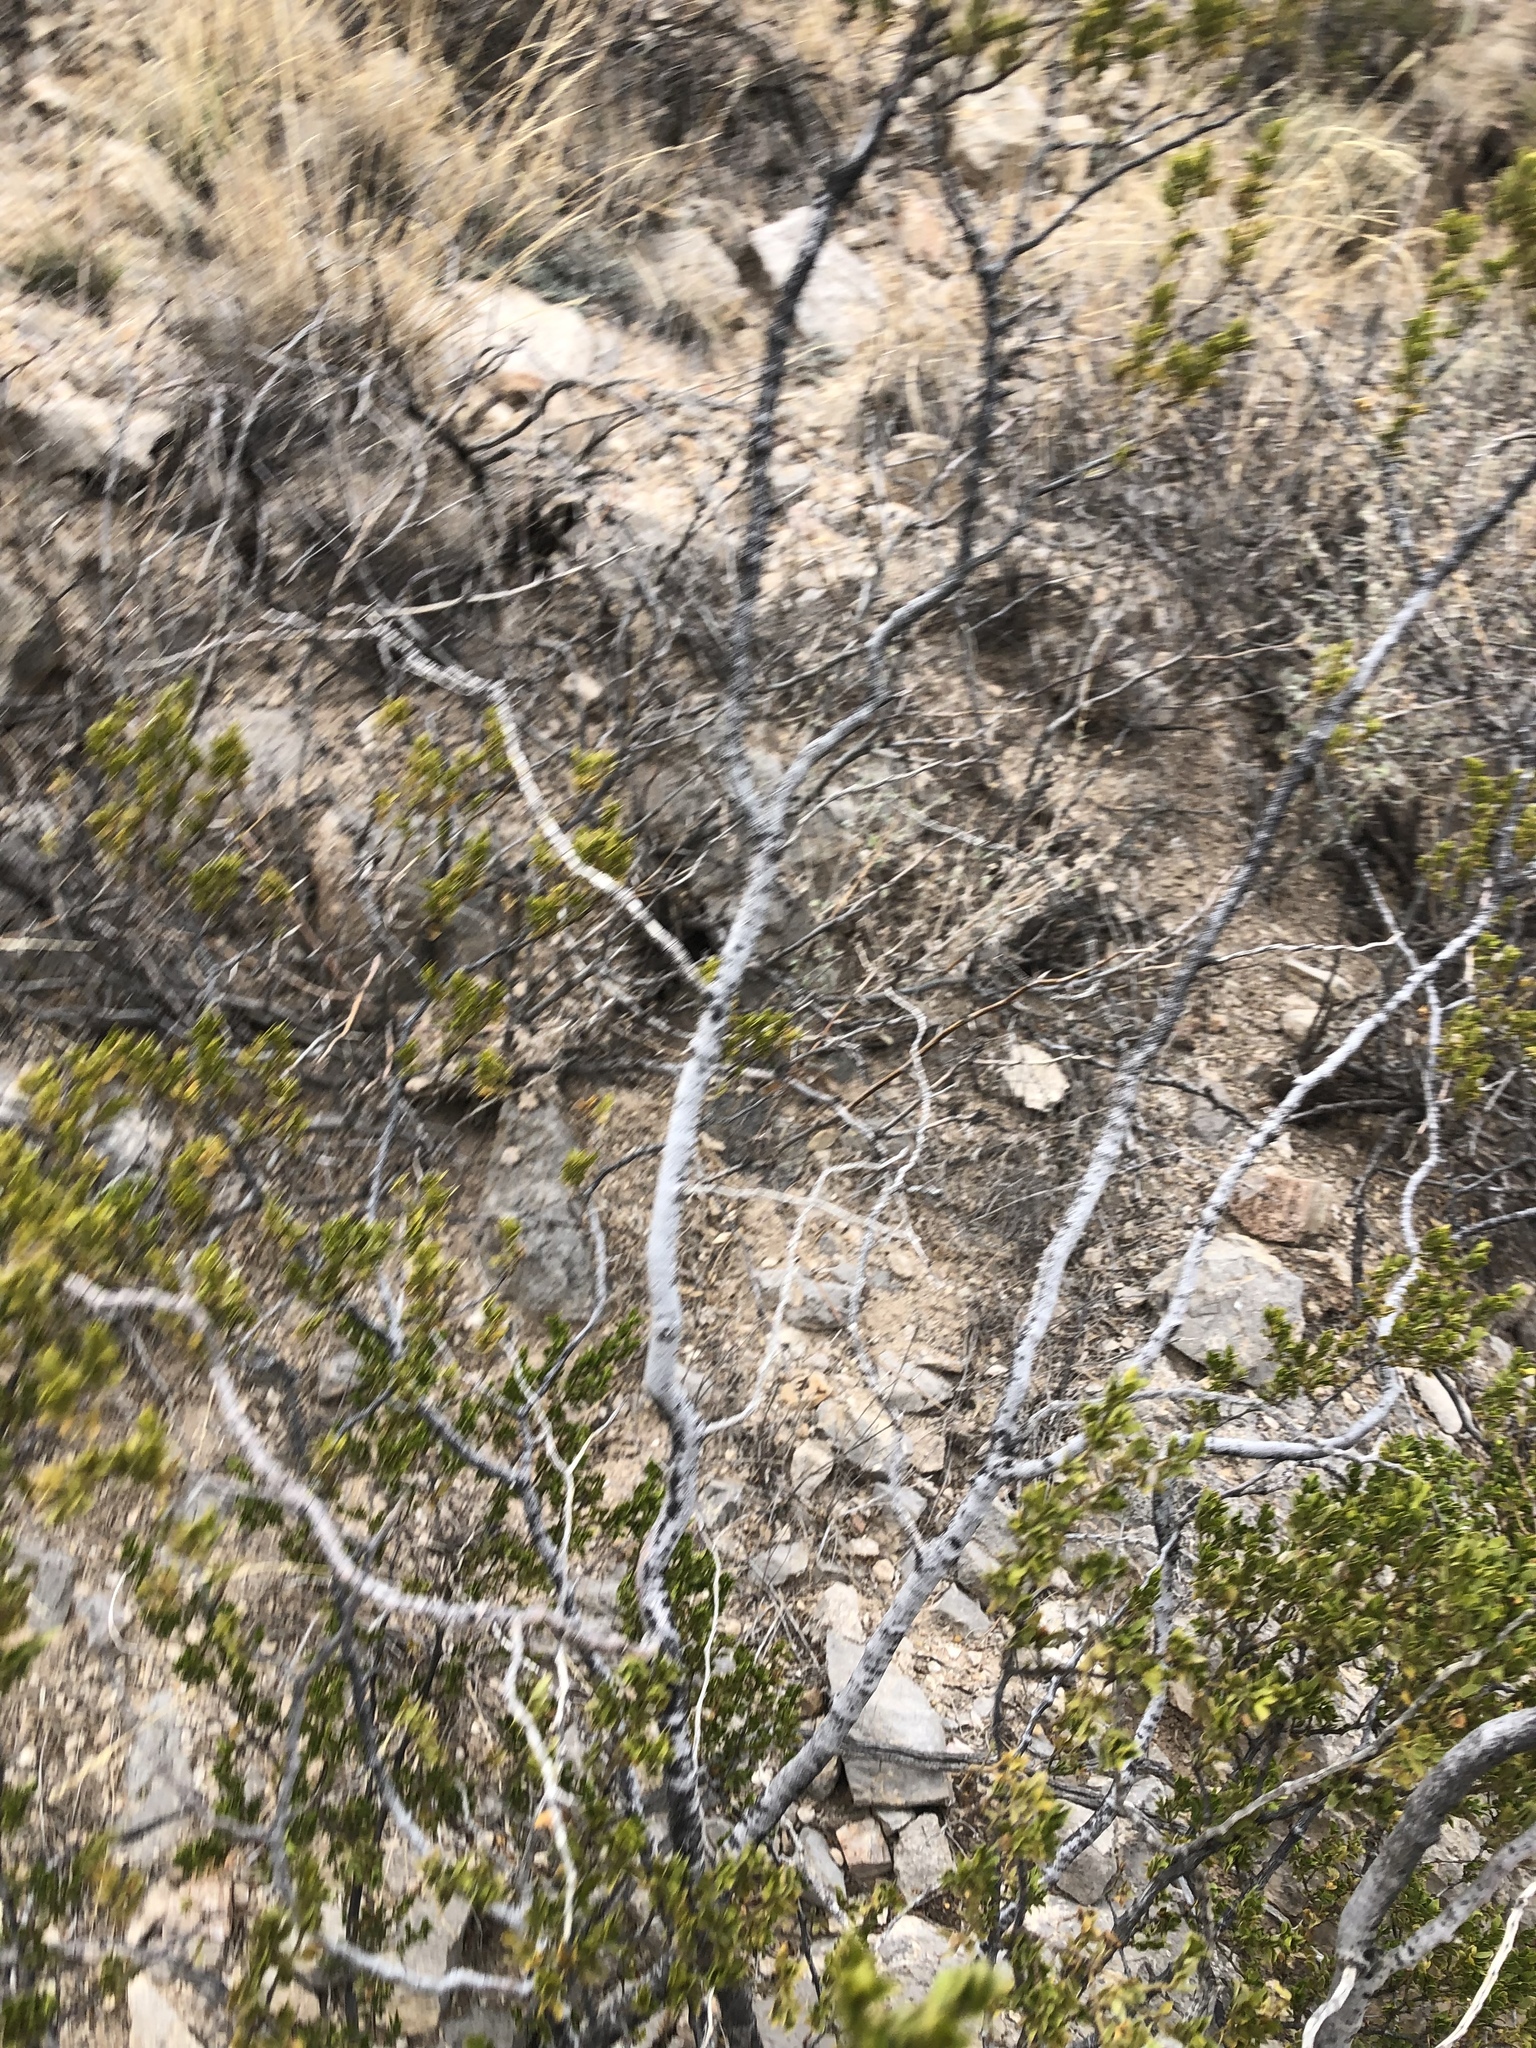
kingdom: Plantae
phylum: Tracheophyta
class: Magnoliopsida
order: Zygophyllales
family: Zygophyllaceae
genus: Larrea
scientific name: Larrea tridentata
